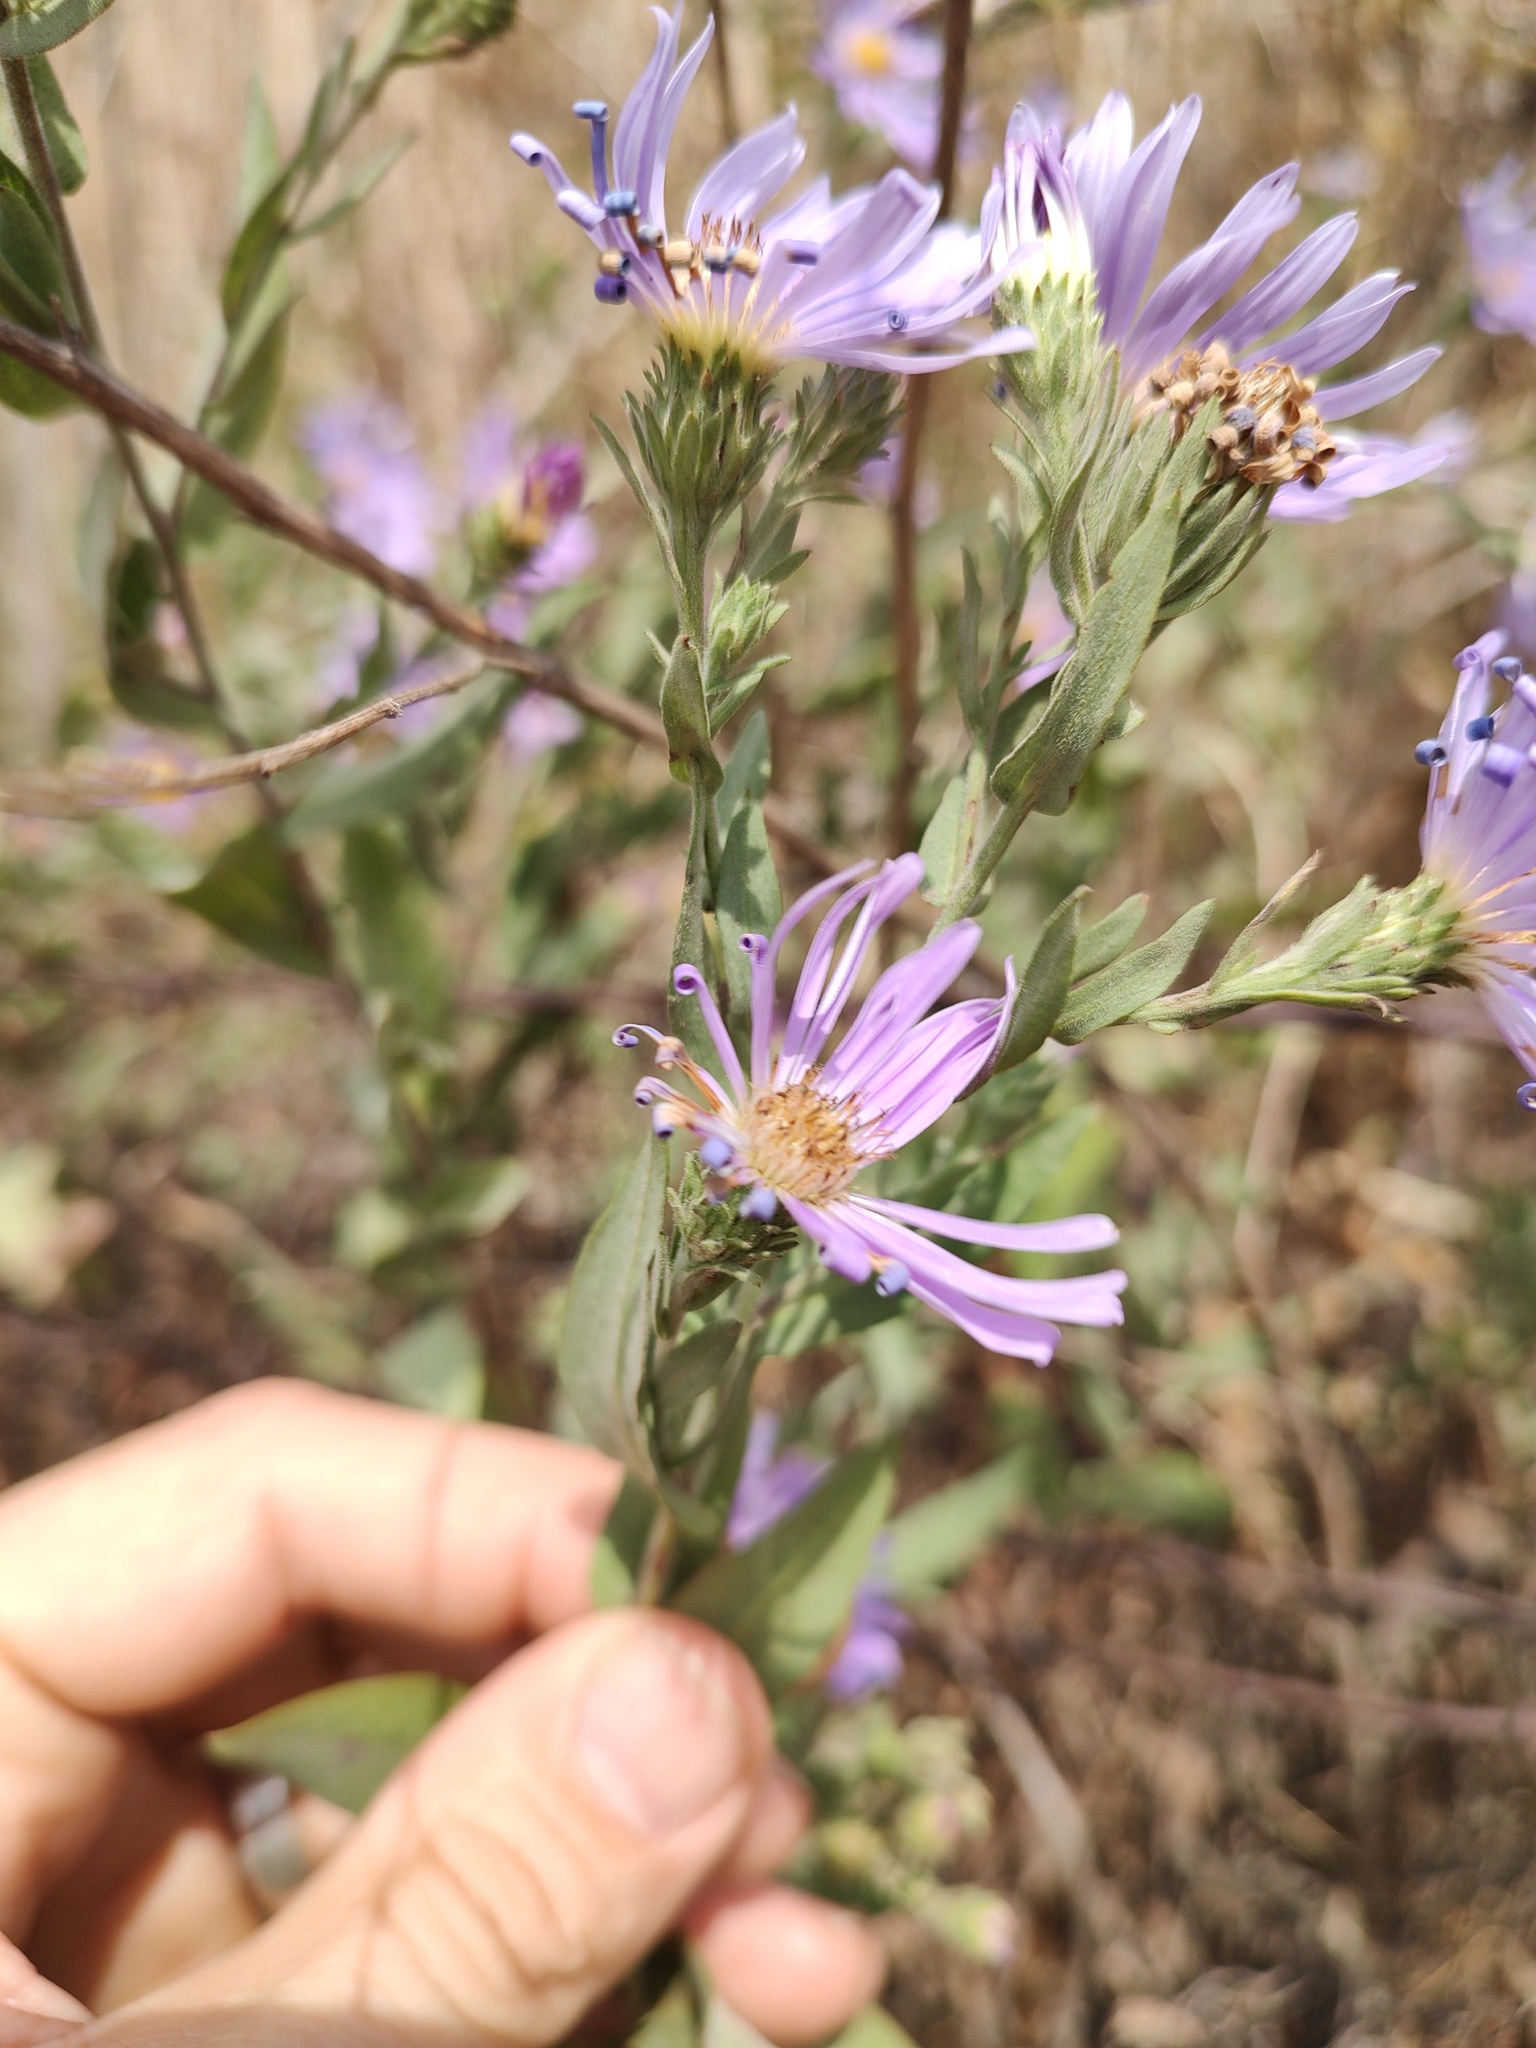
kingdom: Plantae
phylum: Tracheophyta
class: Magnoliopsida
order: Asterales
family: Asteraceae
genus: Symphyotrichum
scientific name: Symphyotrichum jessicae
